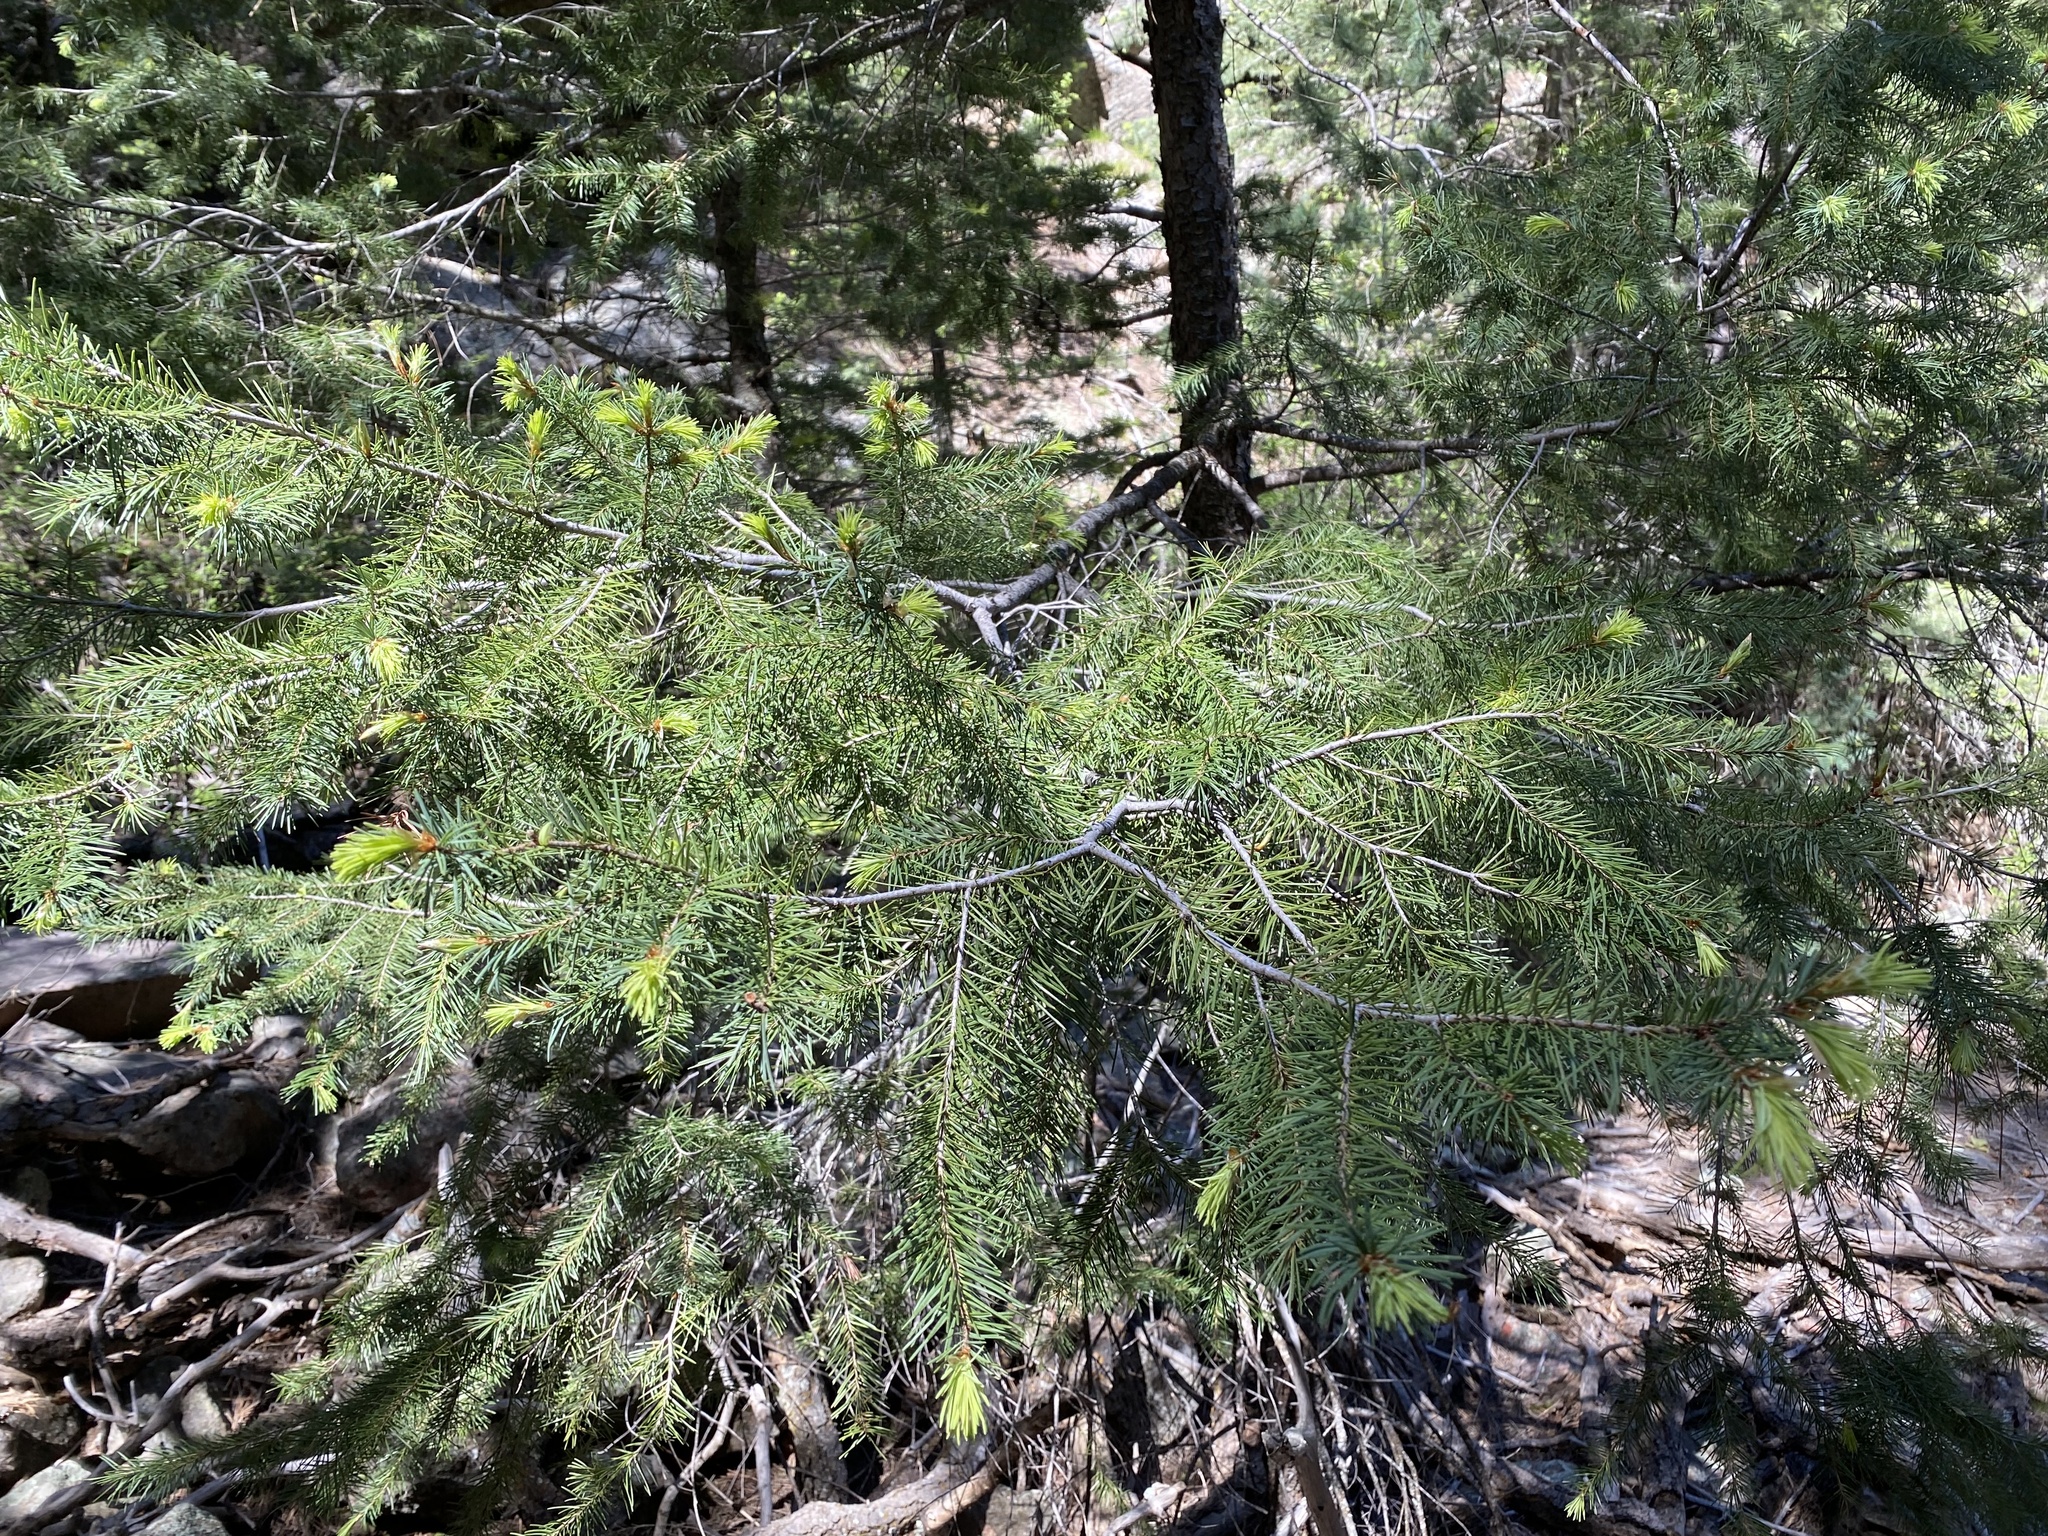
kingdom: Plantae
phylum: Tracheophyta
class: Pinopsida
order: Pinales
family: Pinaceae
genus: Pseudotsuga
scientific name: Pseudotsuga menziesii
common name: Douglas fir
